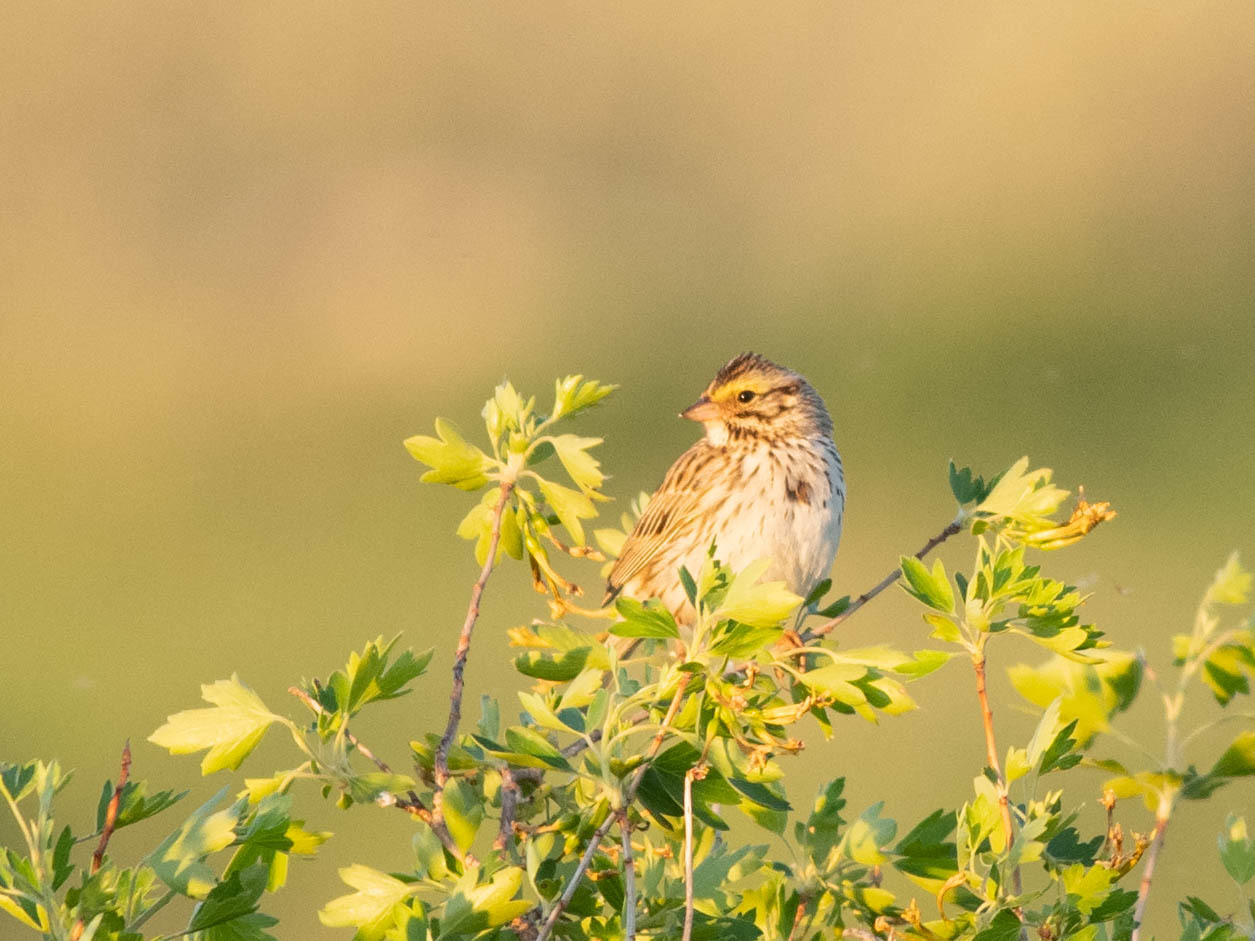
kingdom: Animalia
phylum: Chordata
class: Aves
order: Passeriformes
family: Passerellidae
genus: Passerculus
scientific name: Passerculus sandwichensis
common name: Savannah sparrow
